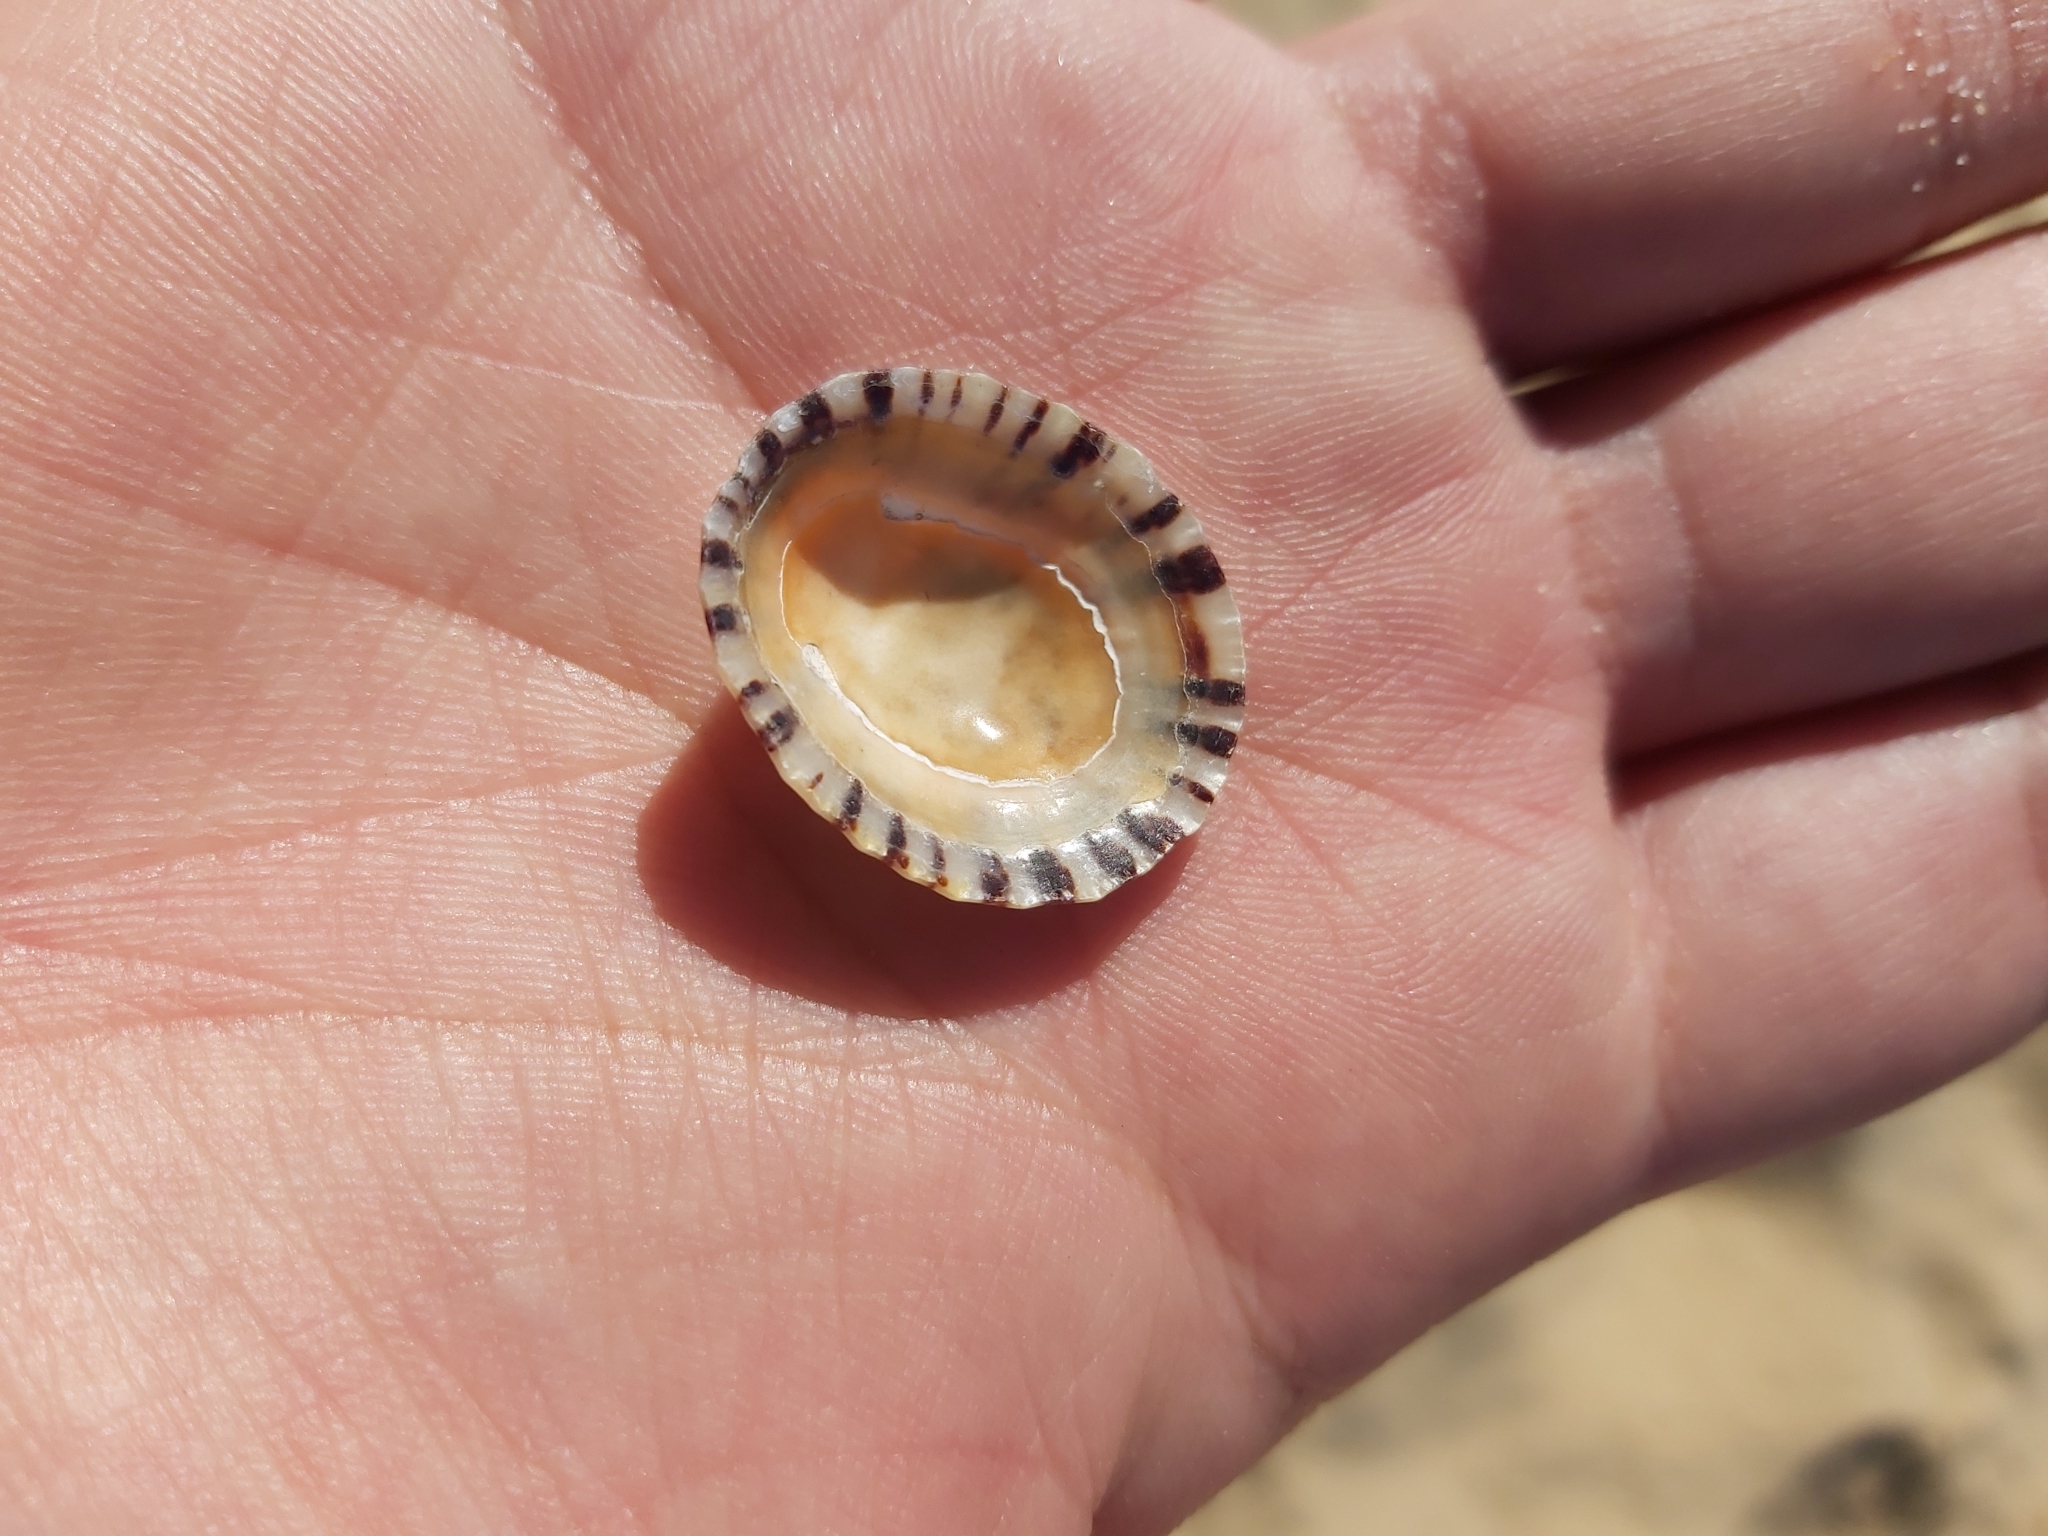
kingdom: Animalia
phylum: Mollusca
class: Gastropoda
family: Nacellidae
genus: Cellana
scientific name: Cellana tramoserica
